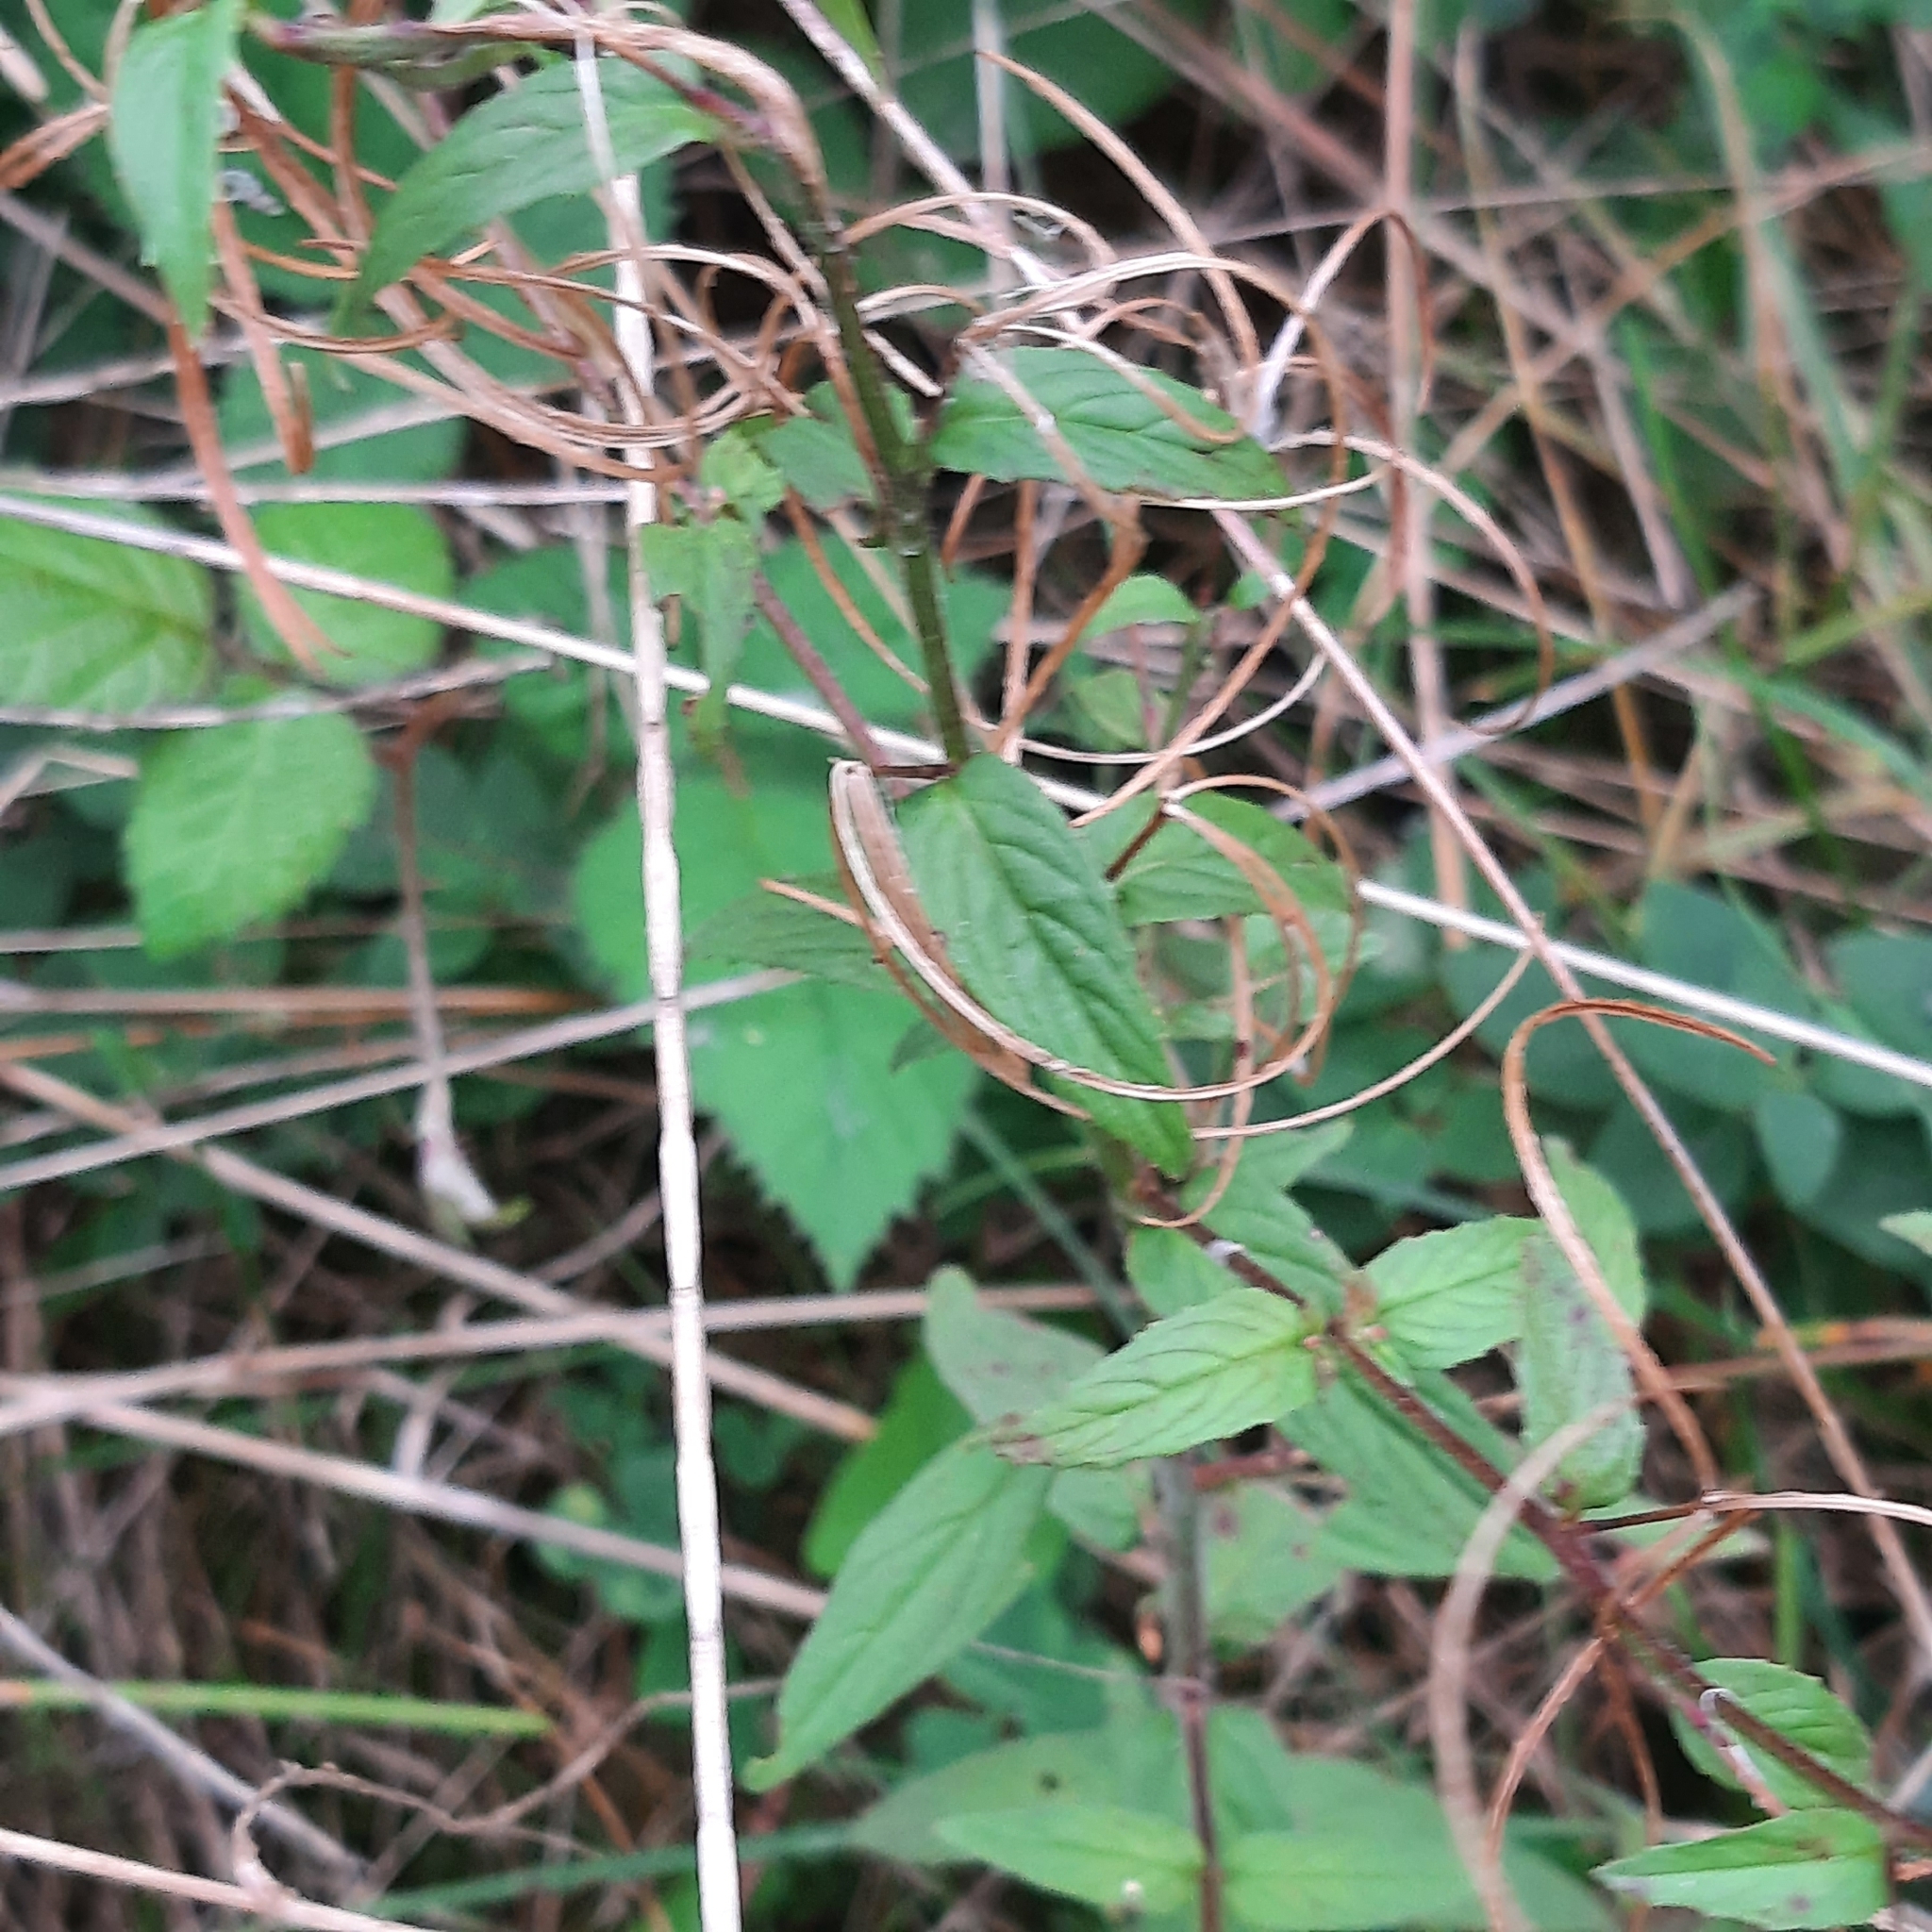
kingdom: Plantae
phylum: Tracheophyta
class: Magnoliopsida
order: Myrtales
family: Onagraceae
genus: Epilobium
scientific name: Epilobium parviflorum
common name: Hoary willowherb
